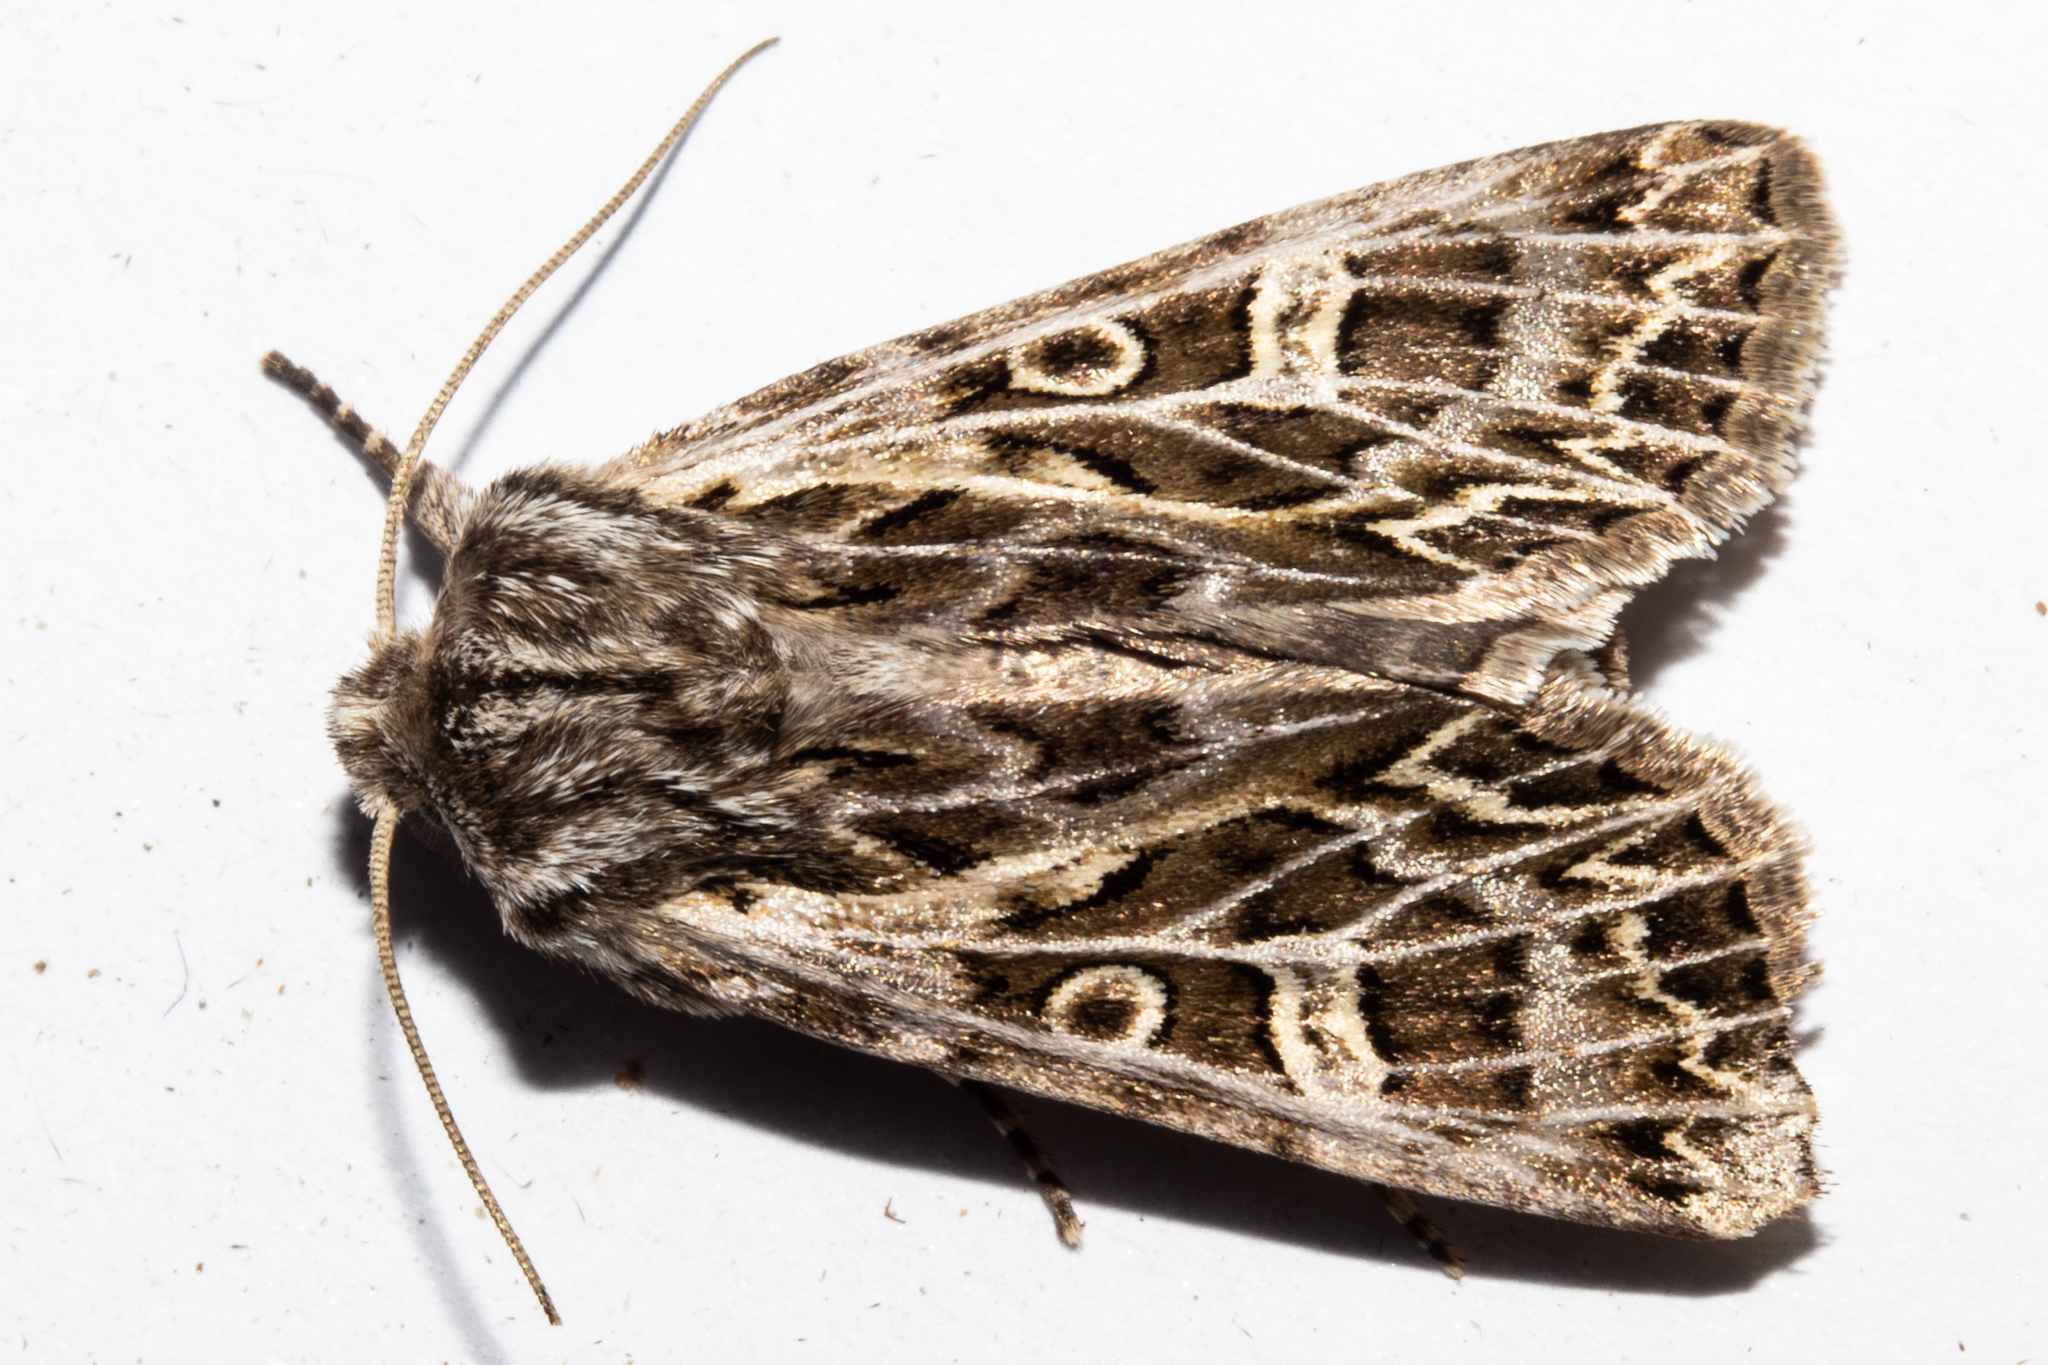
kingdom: Animalia
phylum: Arthropoda
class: Insecta
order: Lepidoptera
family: Noctuidae
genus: Ichneutica
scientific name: Ichneutica
